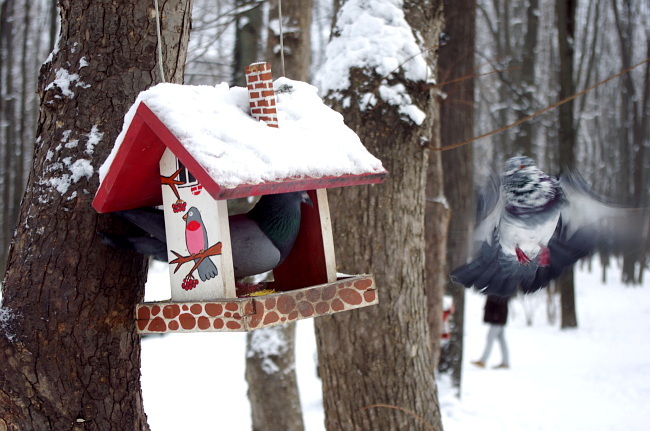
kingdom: Animalia
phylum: Chordata
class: Aves
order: Columbiformes
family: Columbidae
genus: Columba
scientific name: Columba livia
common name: Rock pigeon
